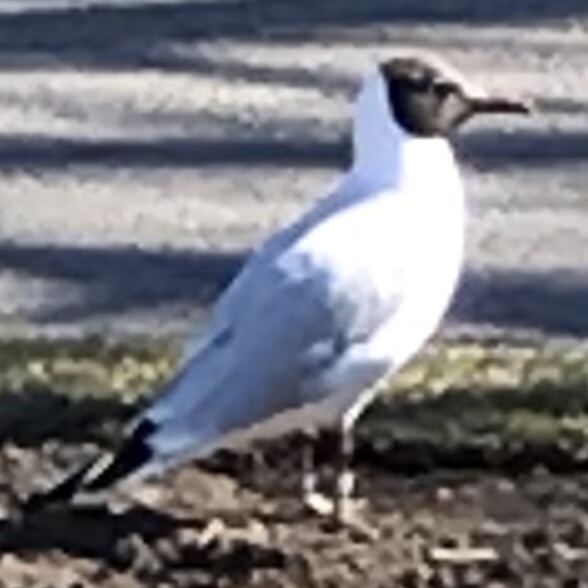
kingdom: Animalia
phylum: Chordata
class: Aves
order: Charadriiformes
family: Laridae
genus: Chroicocephalus
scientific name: Chroicocephalus ridibundus
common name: Black-headed gull
